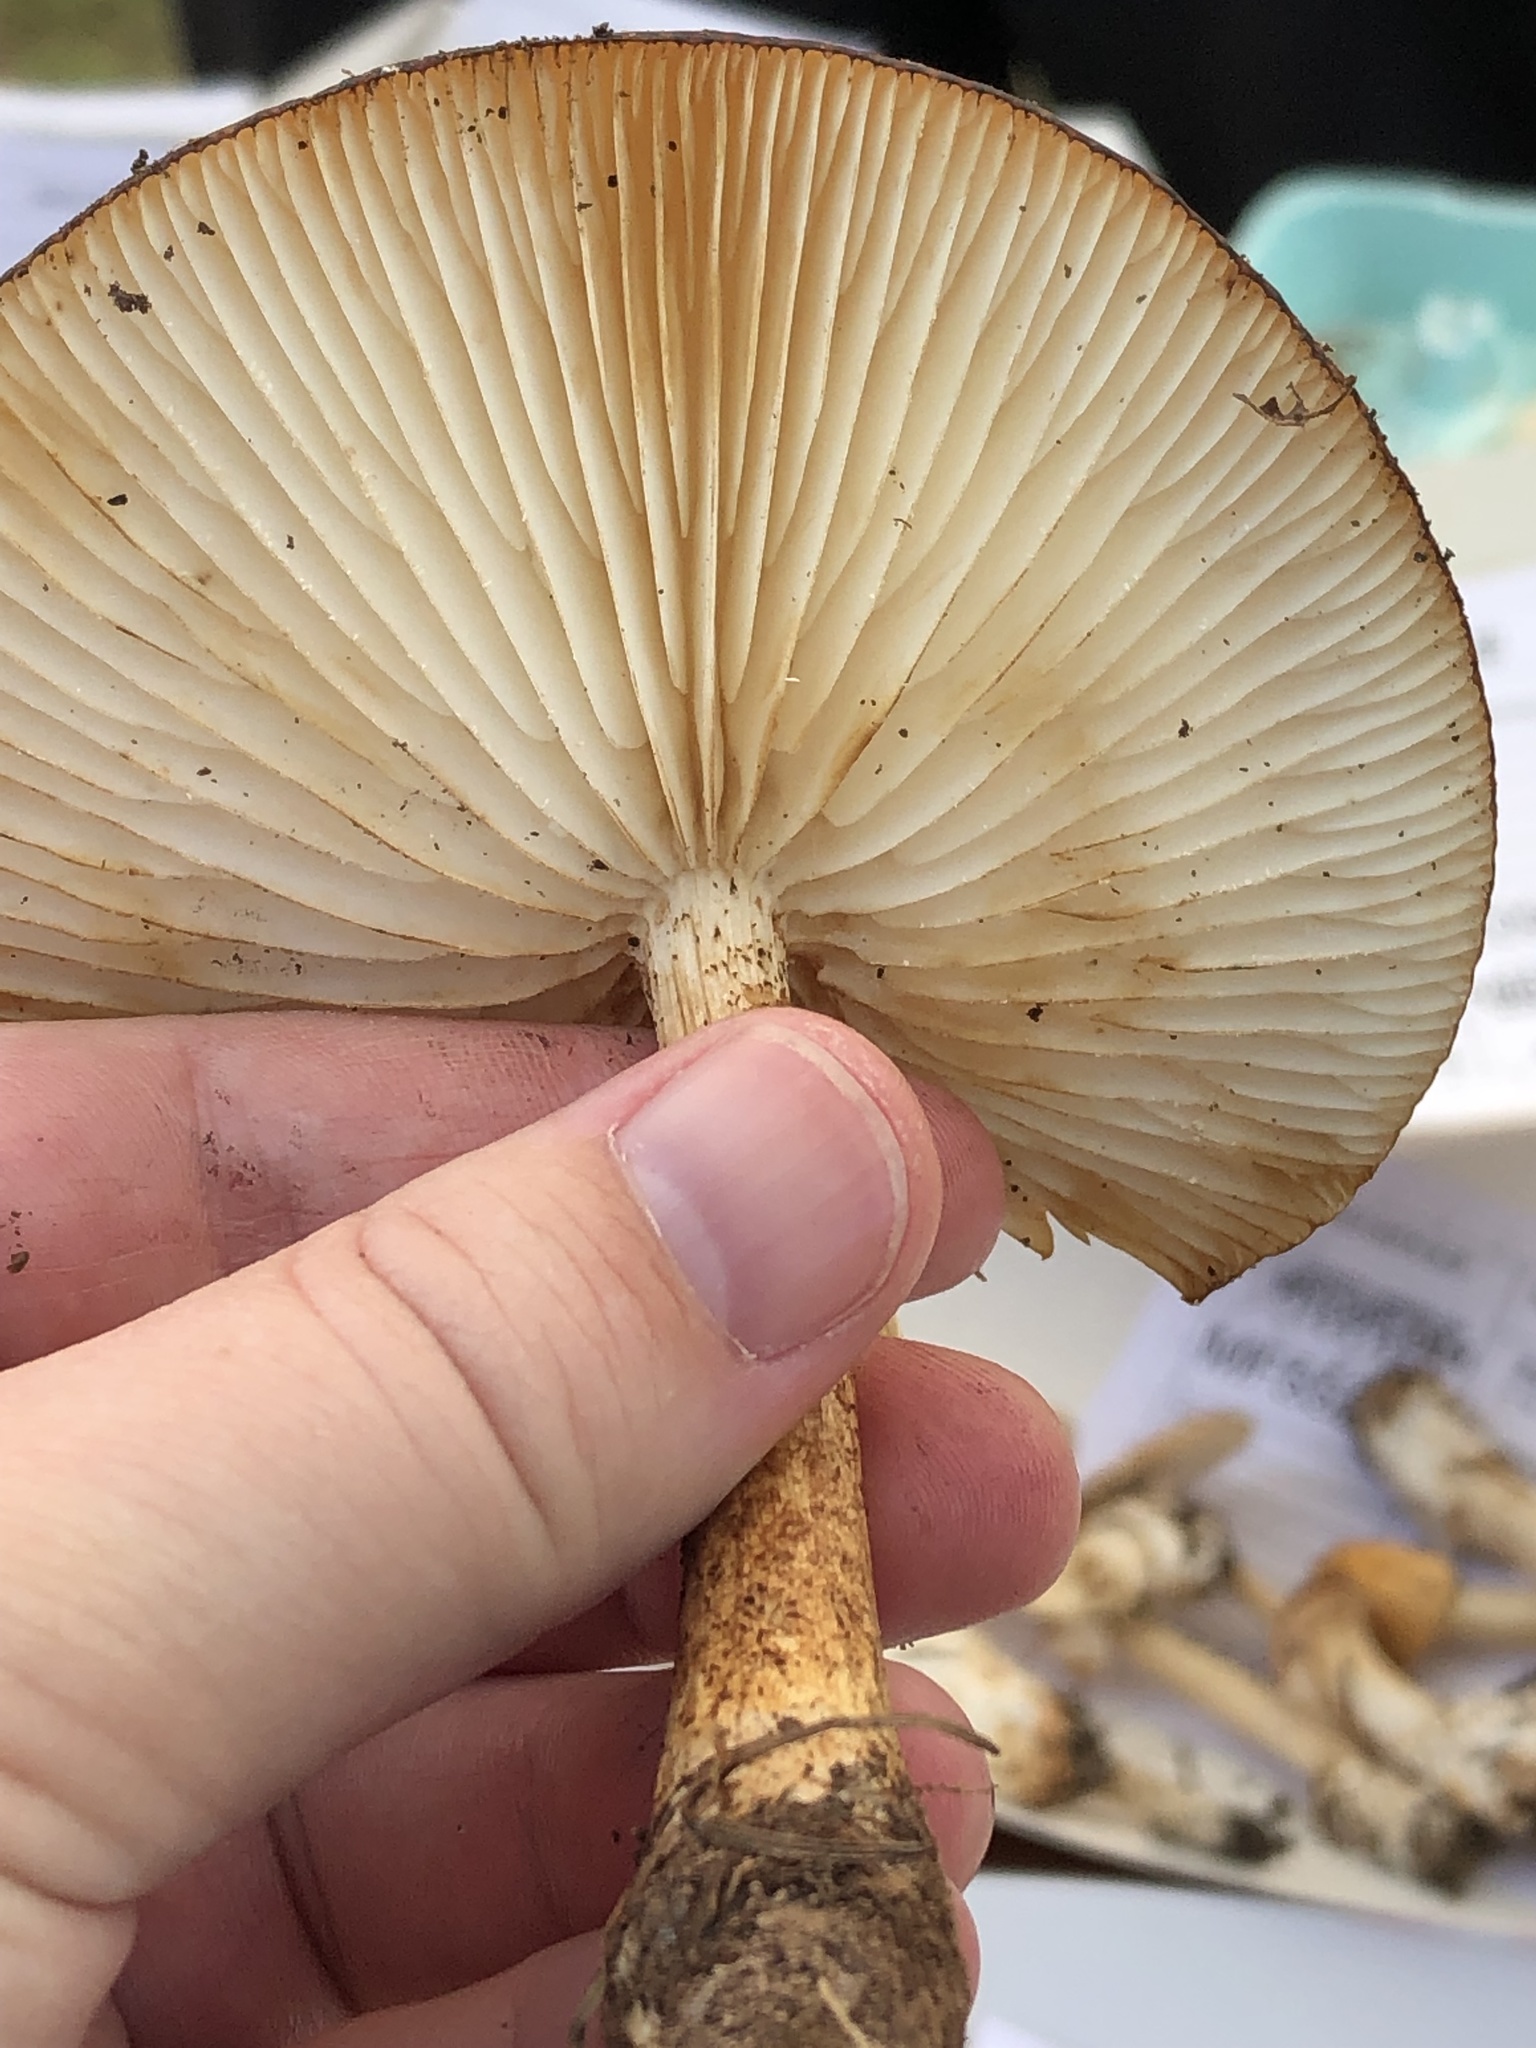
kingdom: Fungi
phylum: Basidiomycota
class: Agaricomycetes
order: Agaricales
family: Physalacriaceae
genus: Hymenopellis
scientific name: Hymenopellis rubrobrunnescens
